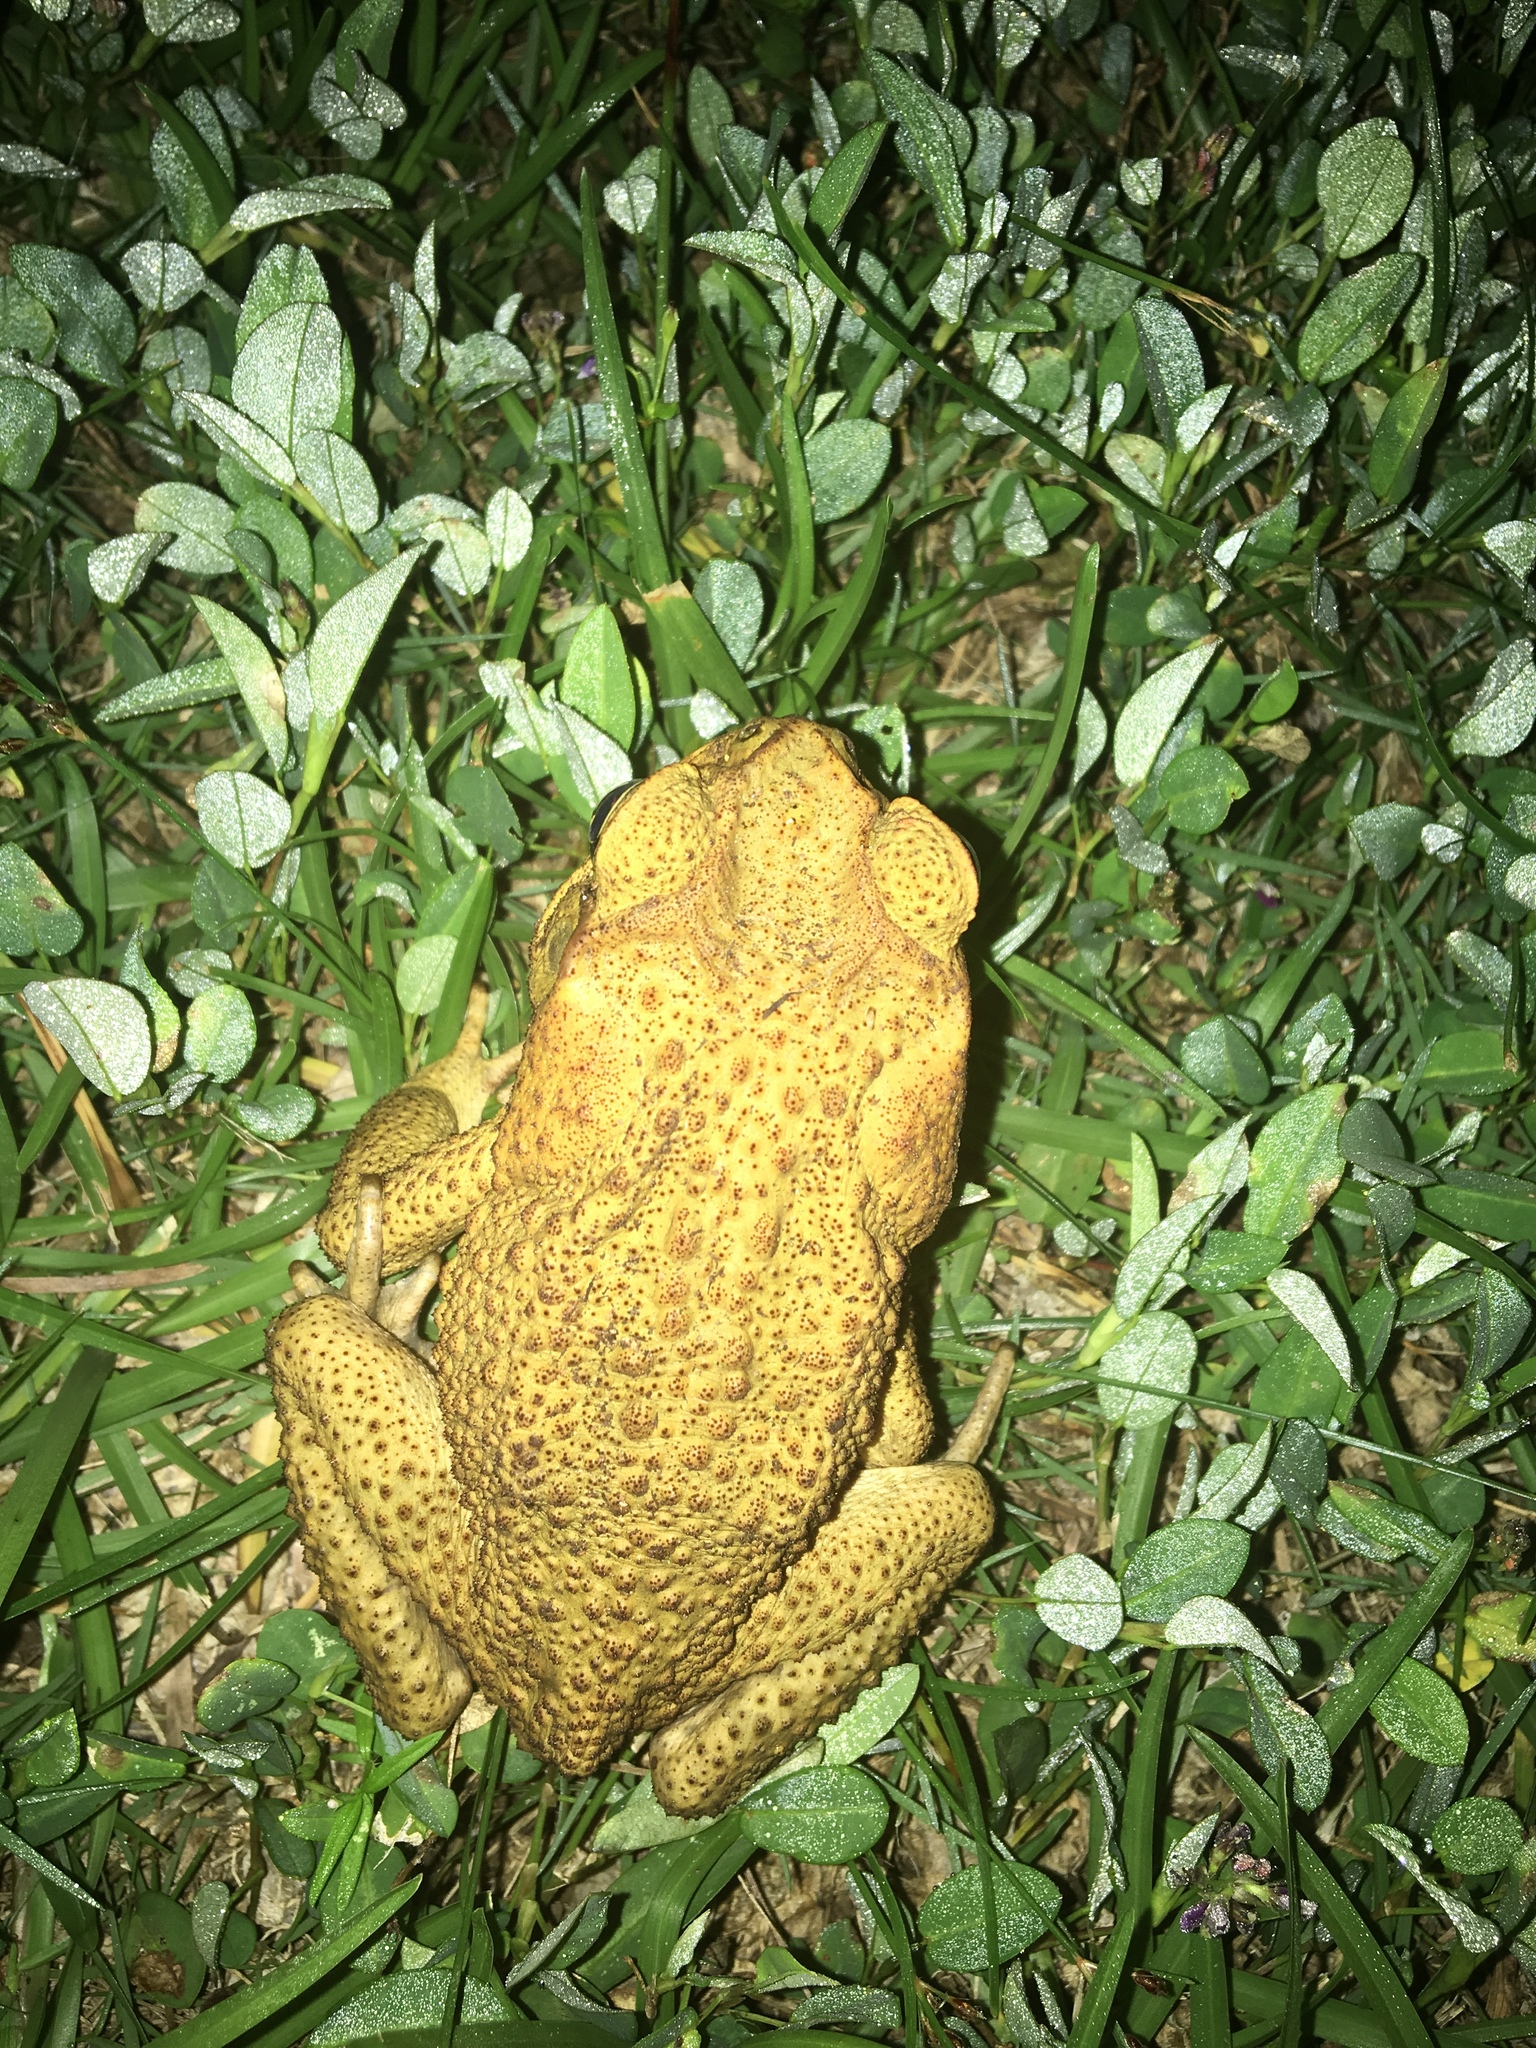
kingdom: Animalia
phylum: Chordata
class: Amphibia
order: Anura
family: Bufonidae
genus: Rhinella
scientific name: Rhinella marina
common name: Cane toad
